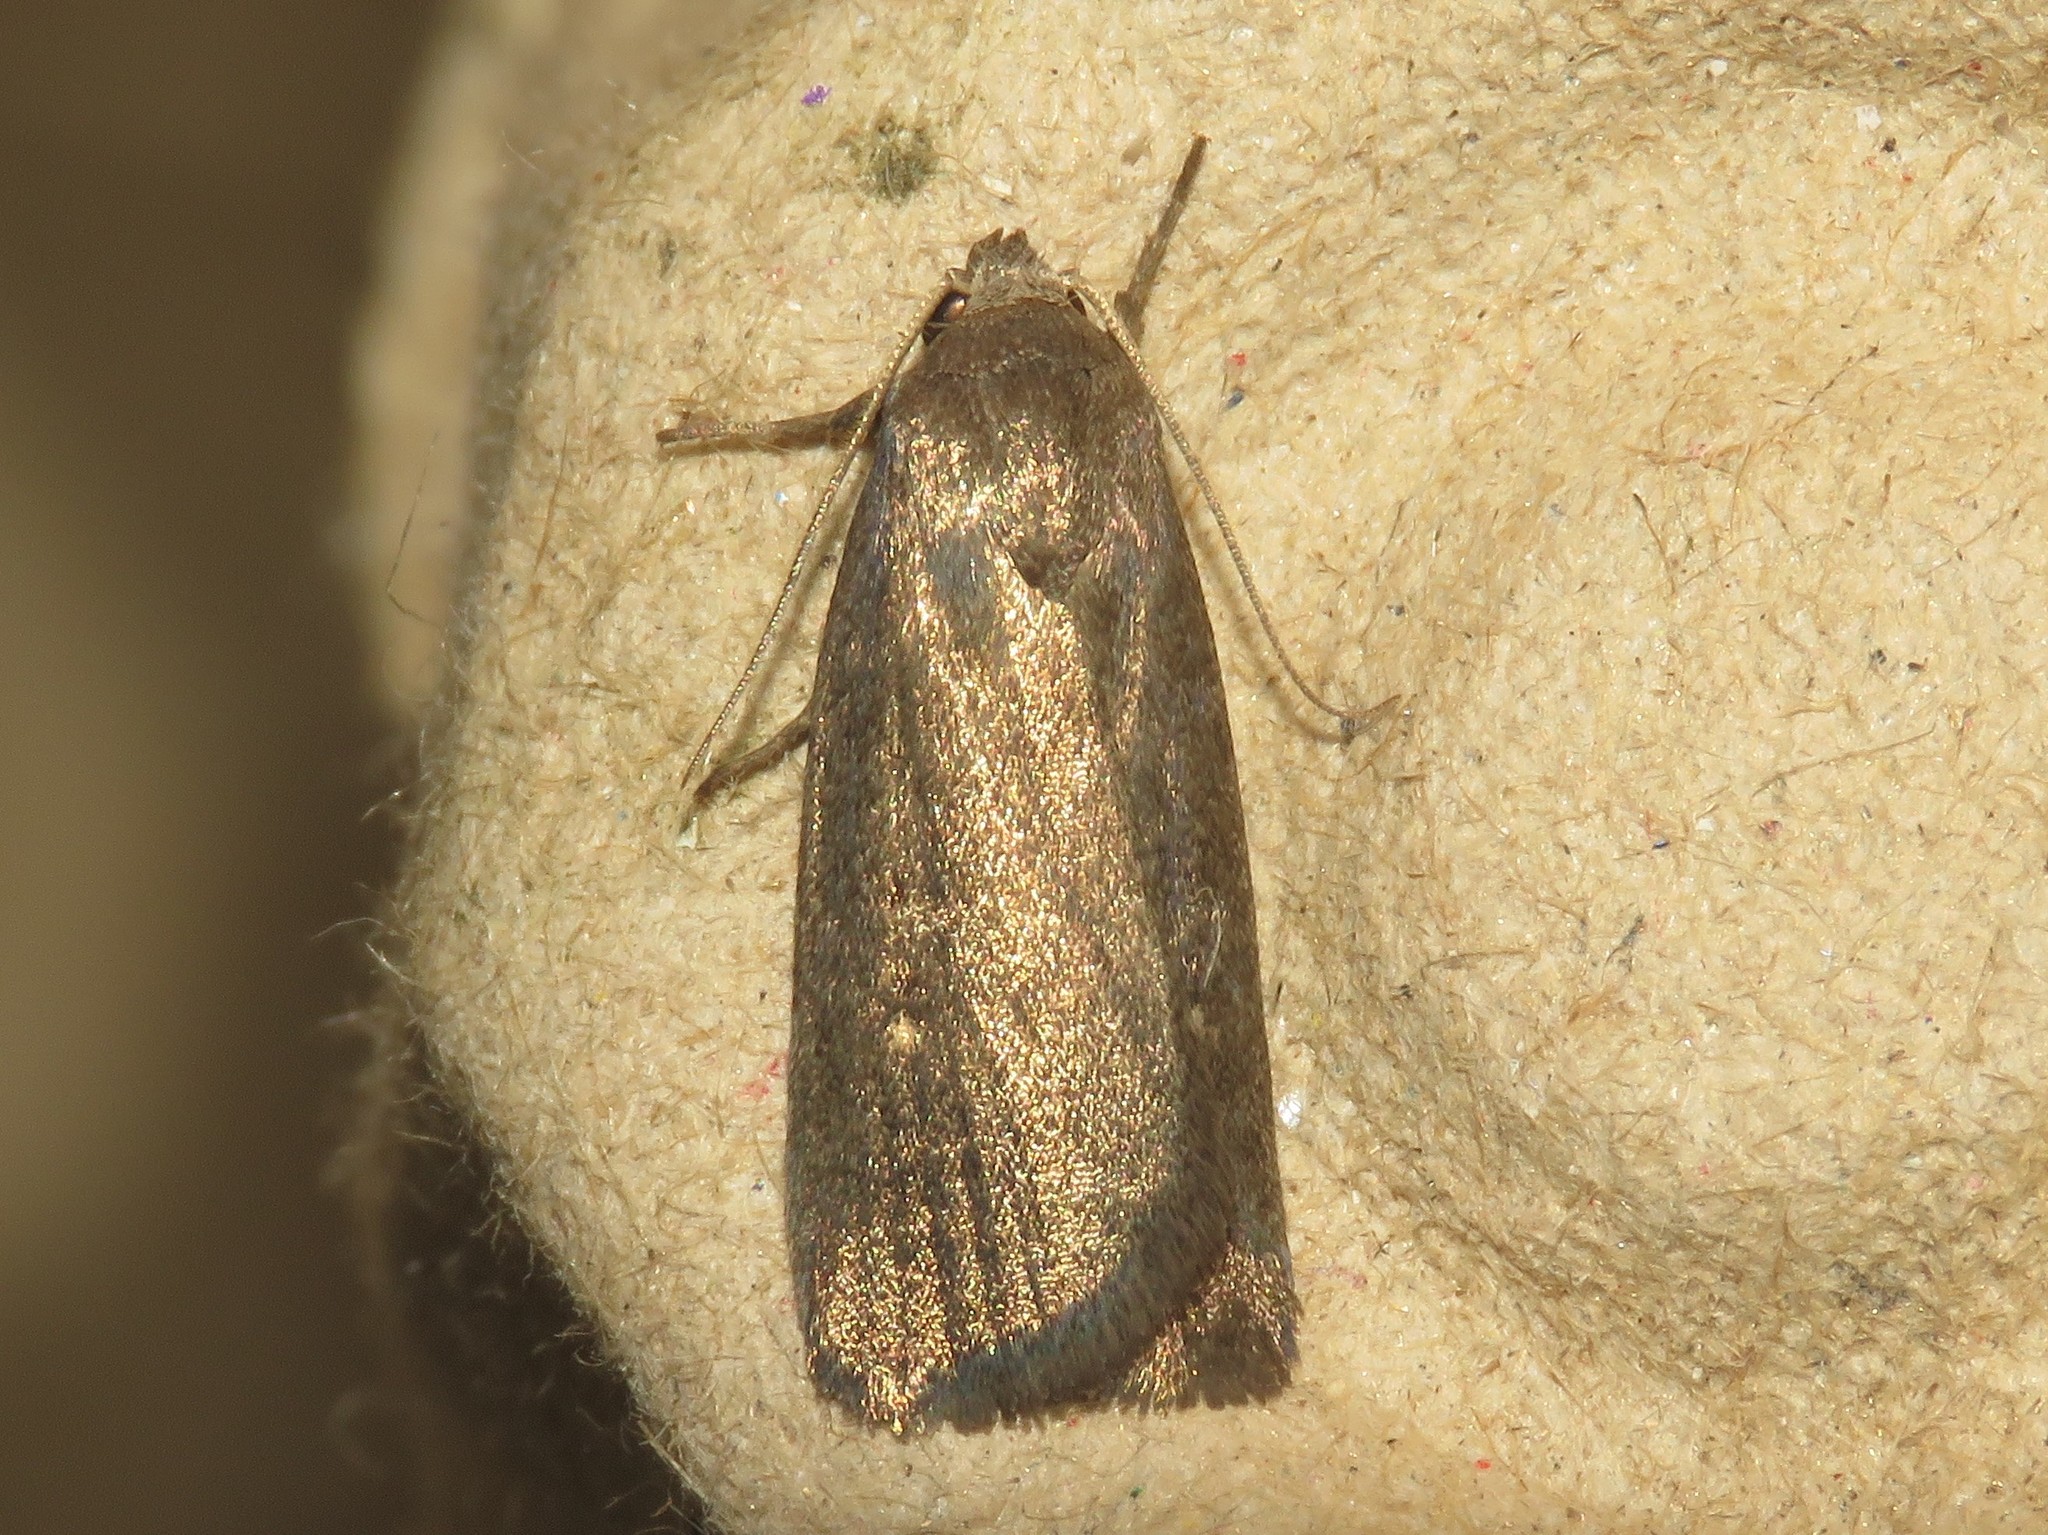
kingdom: Animalia
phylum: Arthropoda
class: Insecta
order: Lepidoptera
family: Noctuidae
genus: Proxenus
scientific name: Proxenus miranda
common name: Miranda moth
